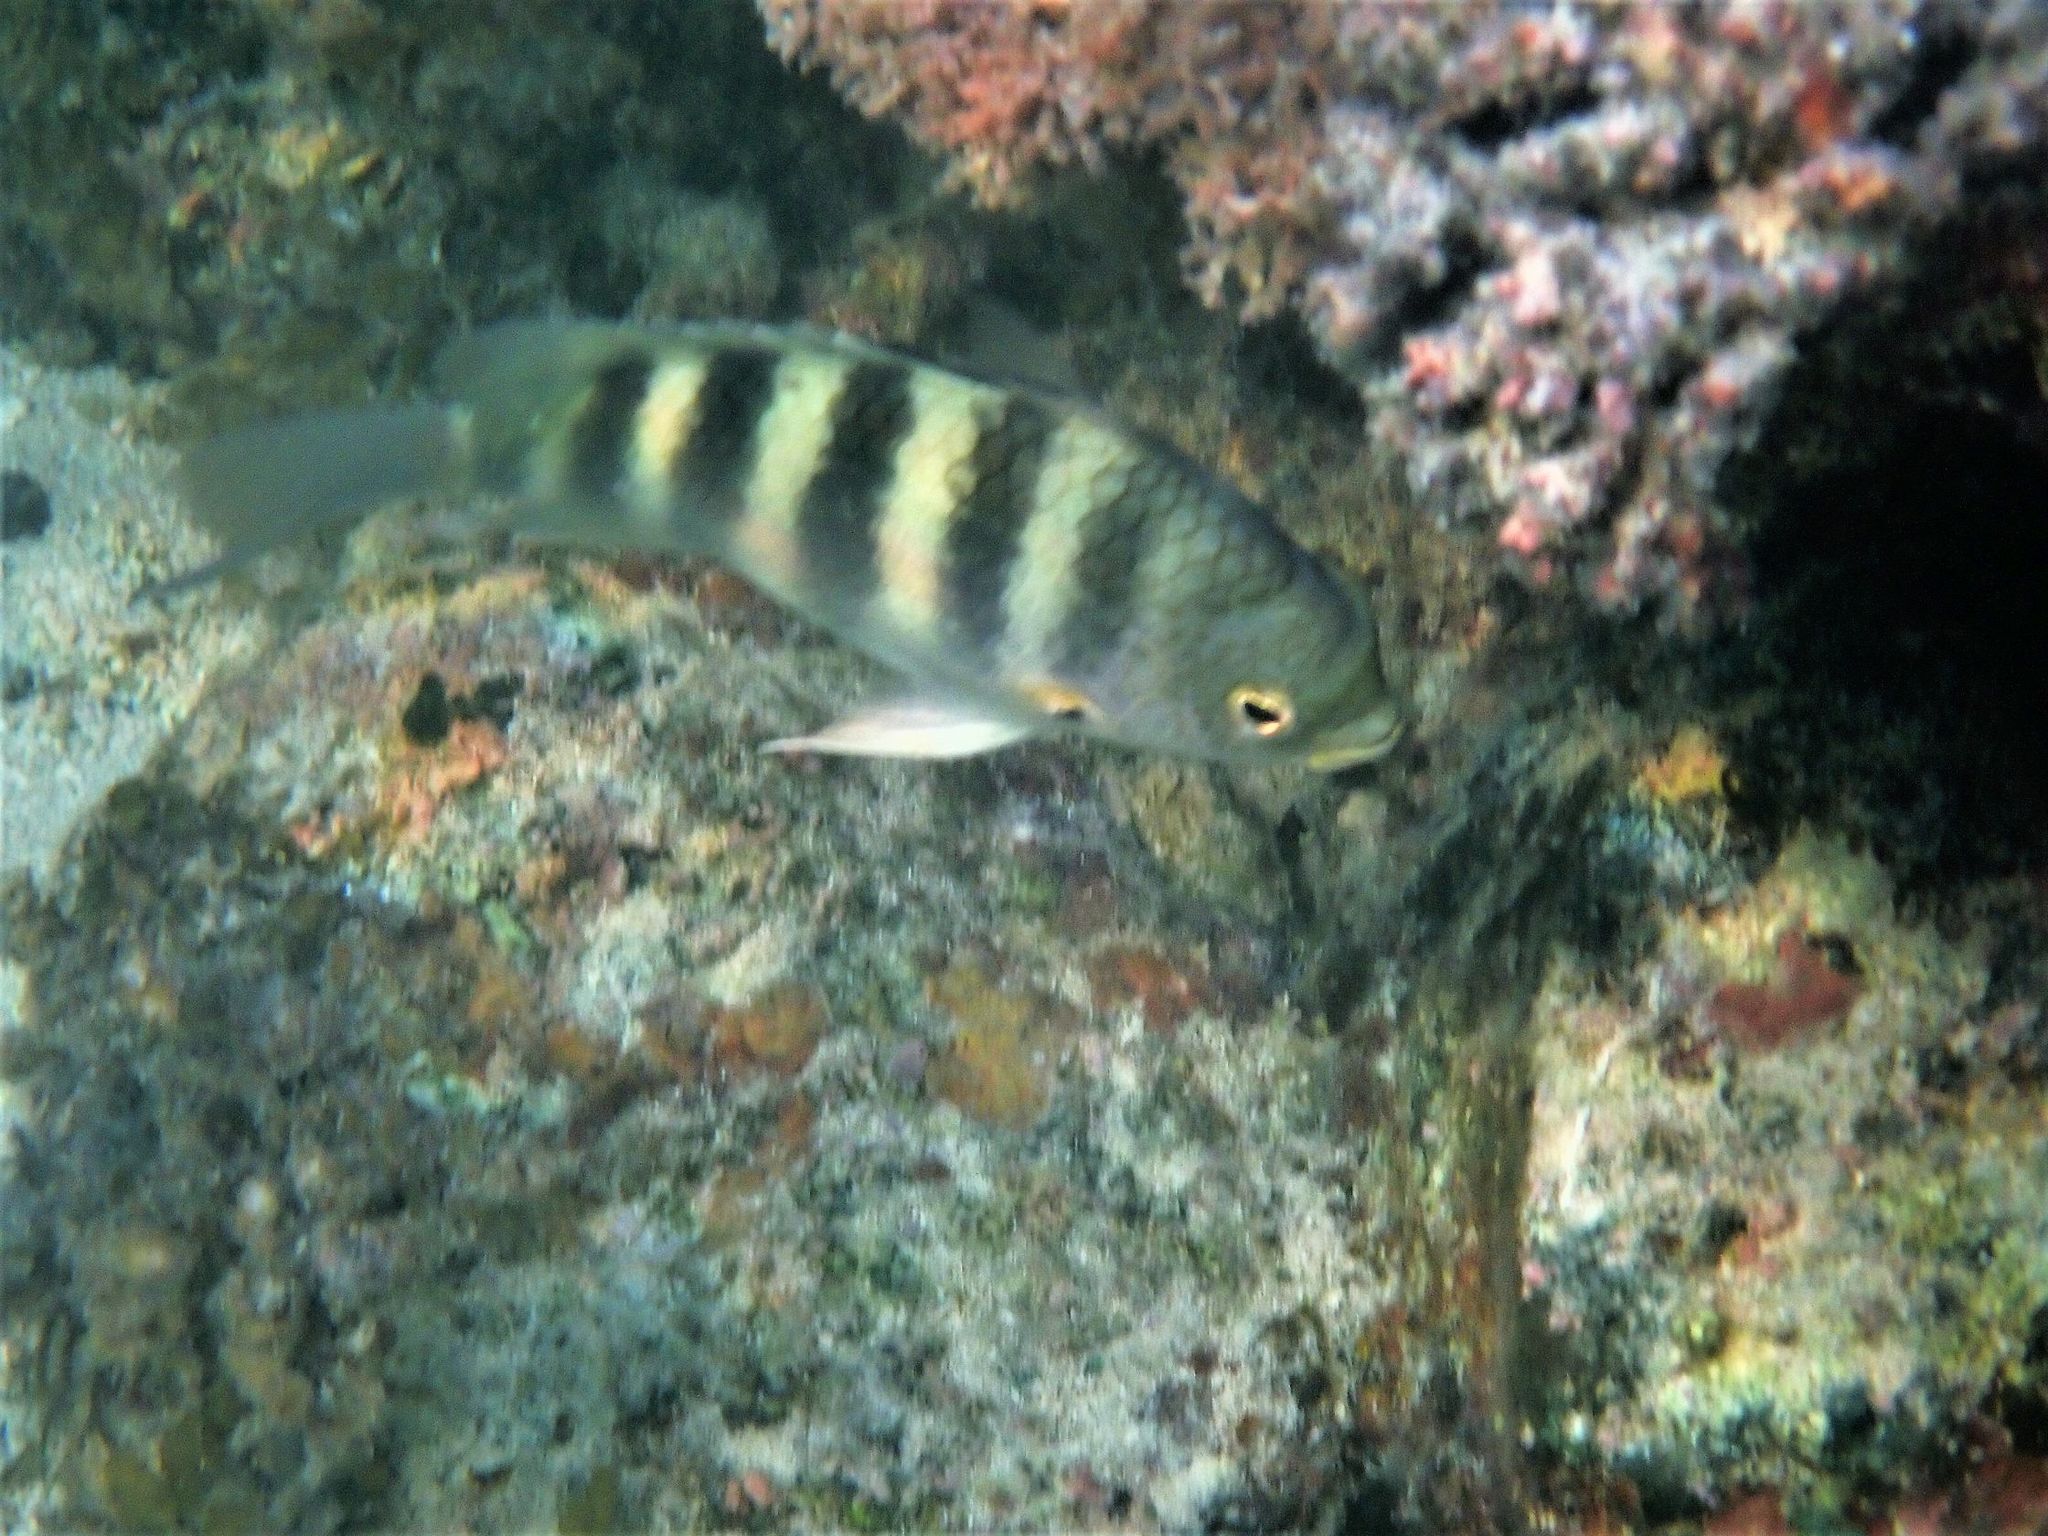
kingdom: Animalia
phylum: Chordata
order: Perciformes
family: Pomacentridae
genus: Abudefduf
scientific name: Abudefduf septemfasciatus
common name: Banded sergeant
